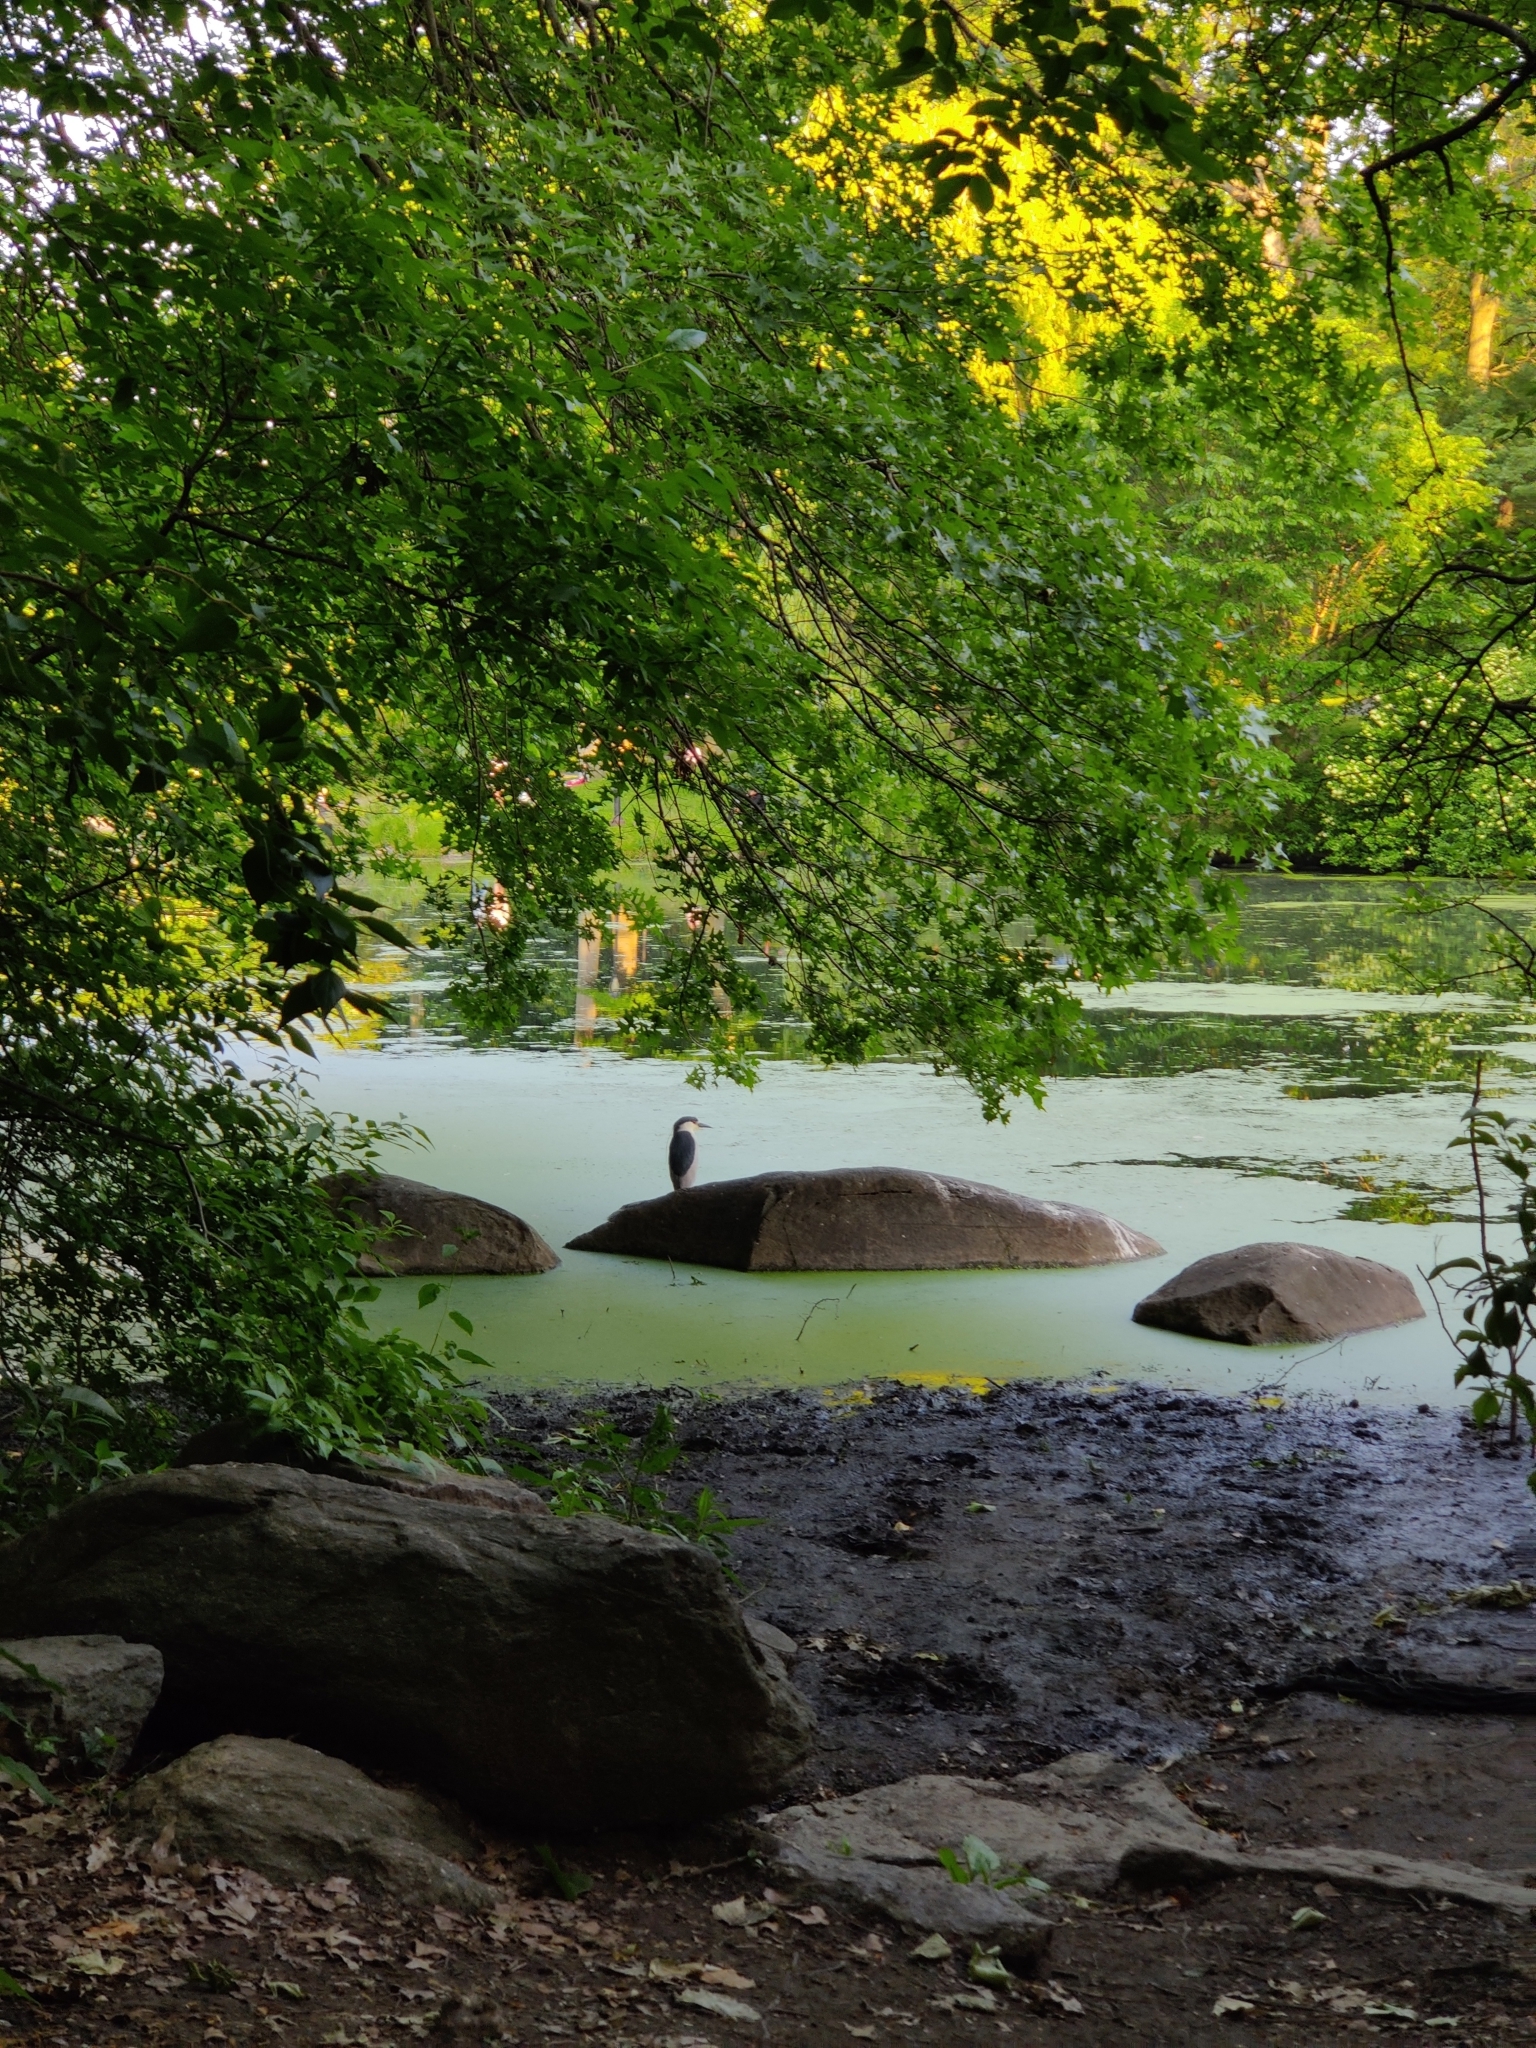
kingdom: Animalia
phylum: Chordata
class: Aves
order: Pelecaniformes
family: Ardeidae
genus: Nycticorax
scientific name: Nycticorax nycticorax
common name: Black-crowned night heron
